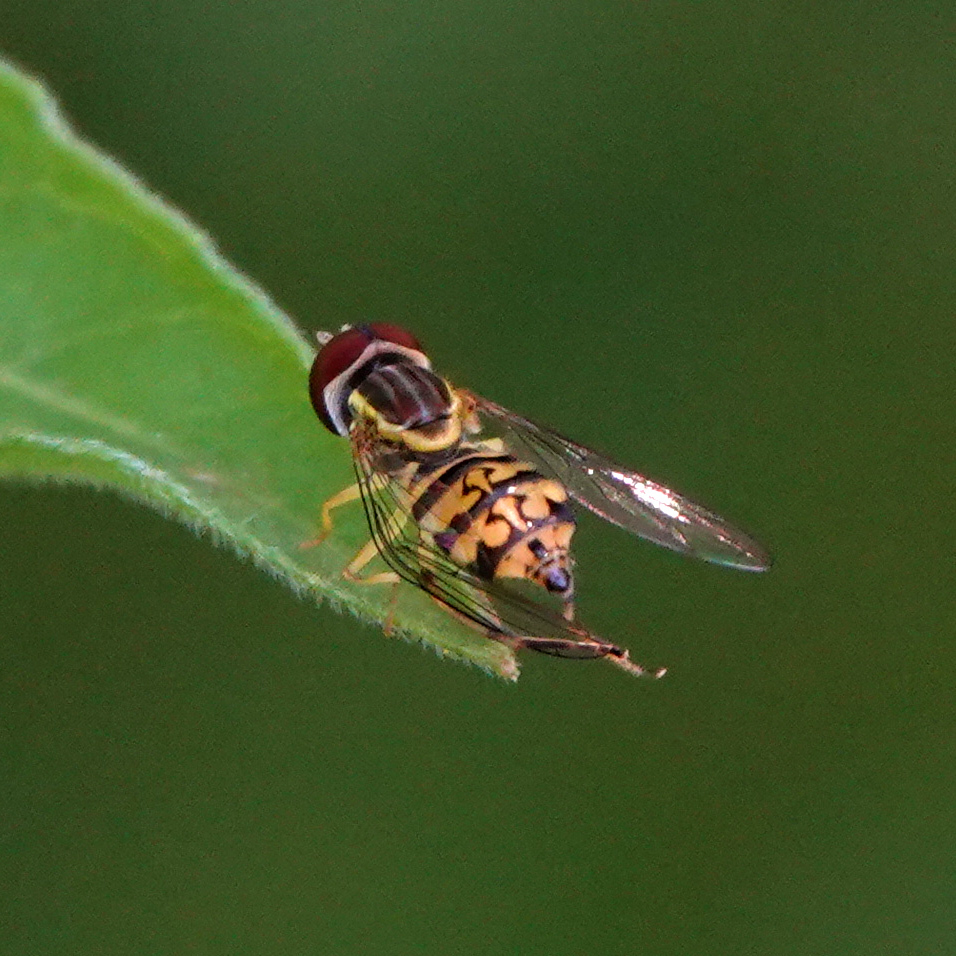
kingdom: Animalia
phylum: Arthropoda
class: Insecta
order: Diptera
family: Syrphidae
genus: Toxomerus
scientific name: Toxomerus geminatus
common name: Eastern calligrapher
